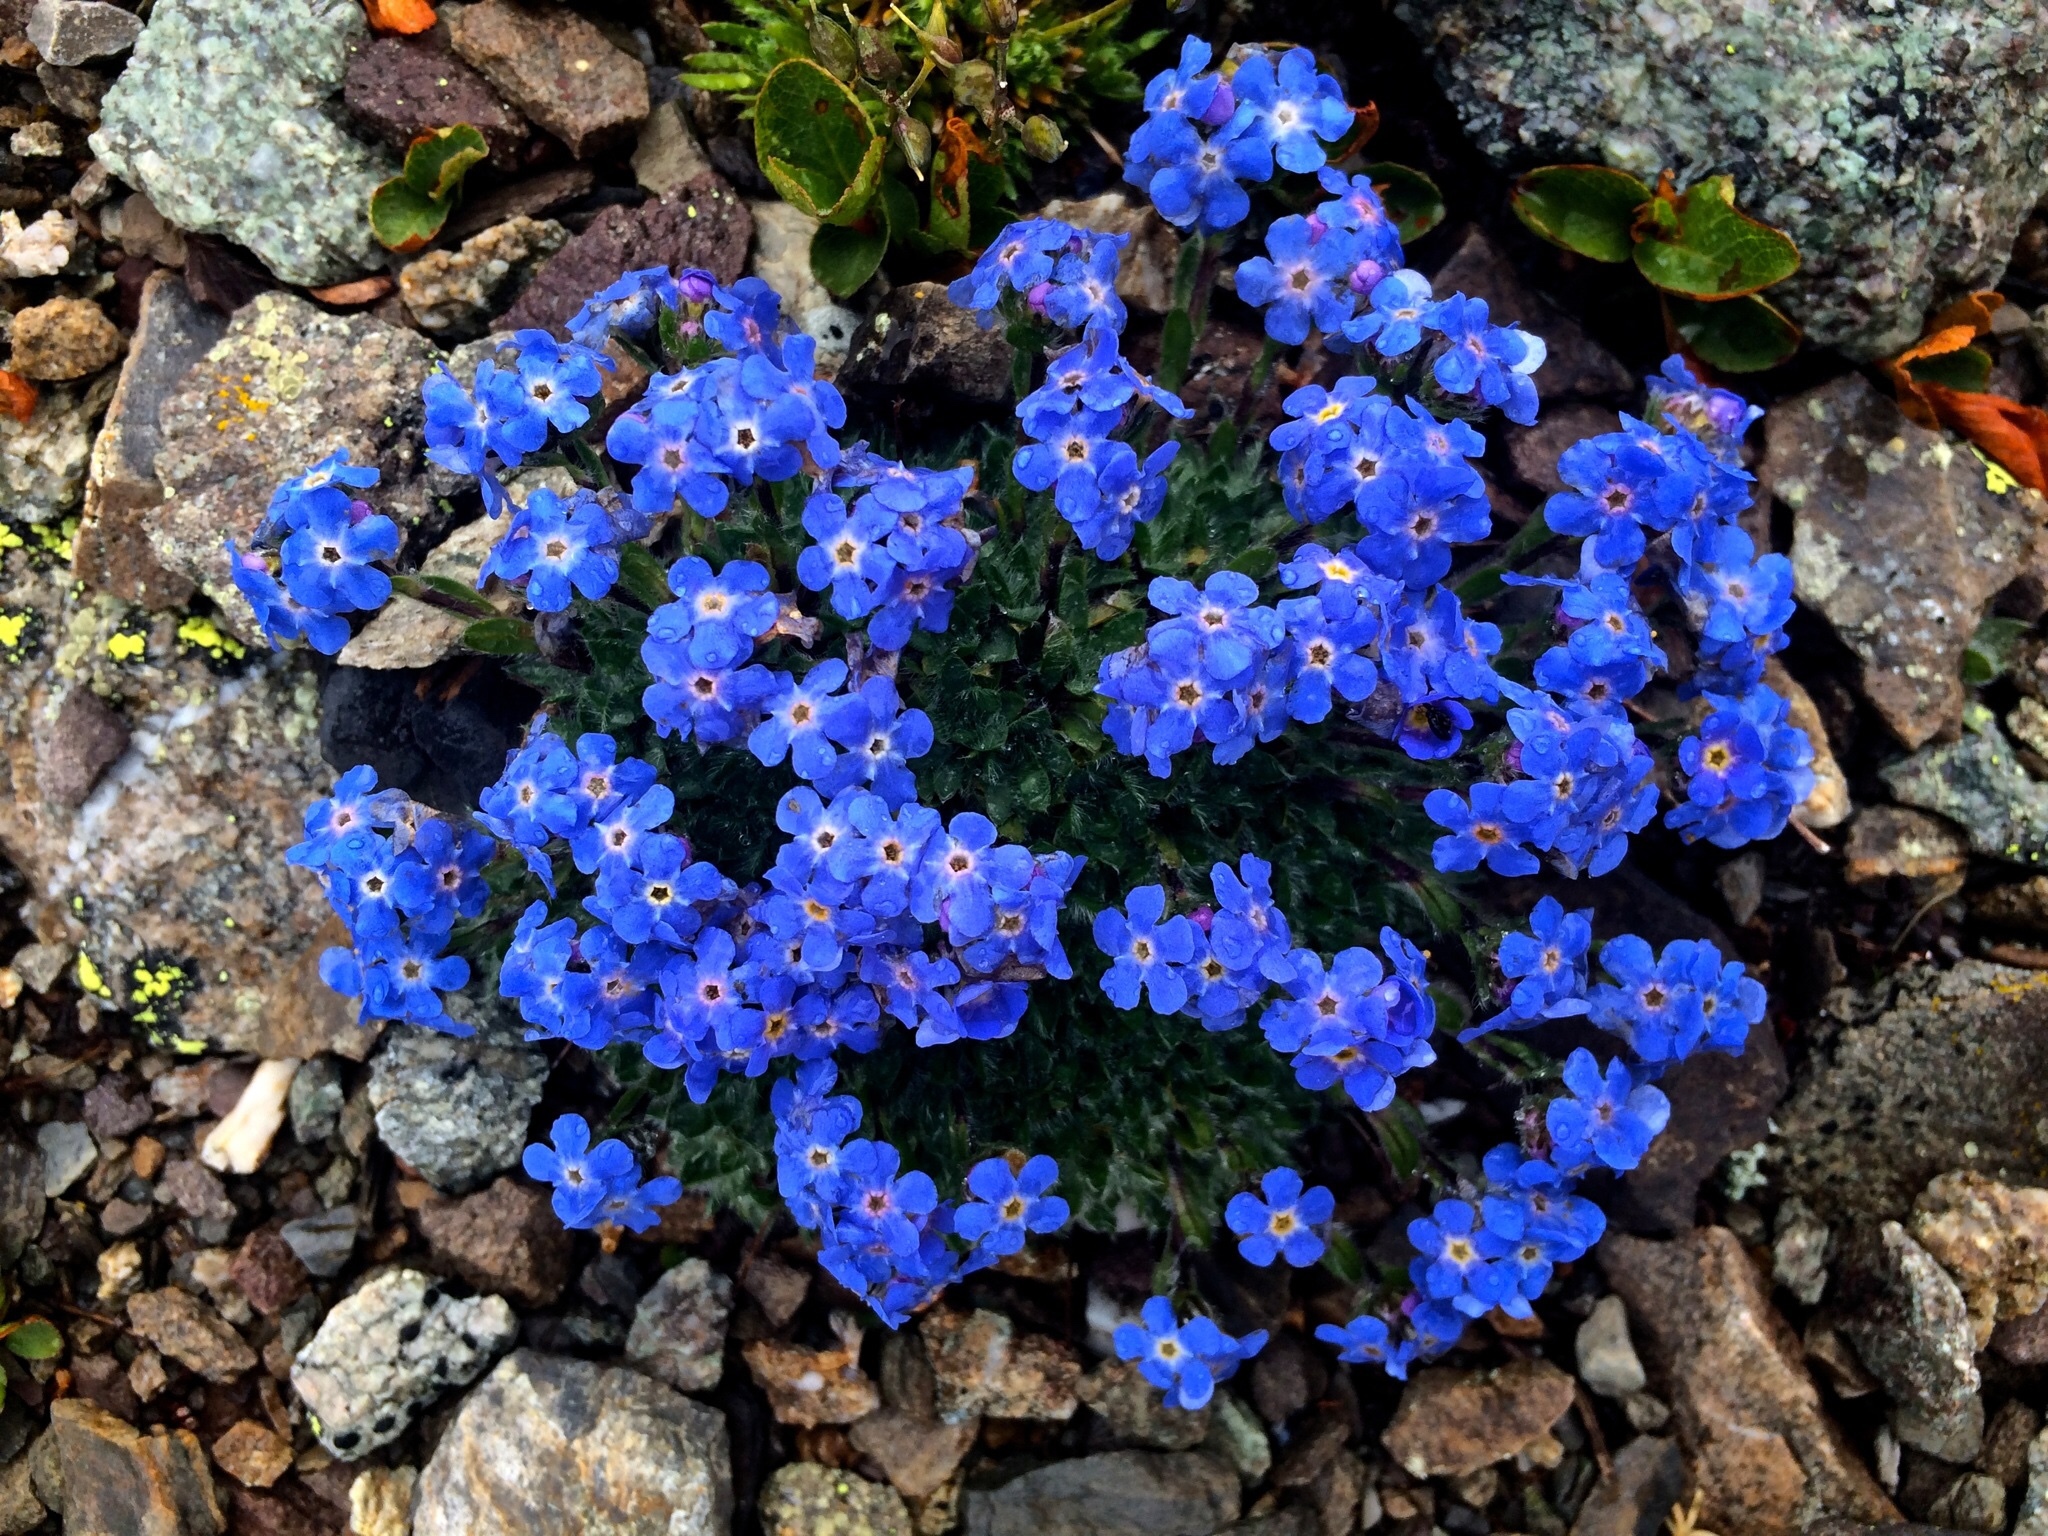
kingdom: Plantae
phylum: Tracheophyta
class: Magnoliopsida
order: Boraginales
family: Boraginaceae
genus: Eritrichium
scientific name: Eritrichium nanum
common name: King-of-the-alps
